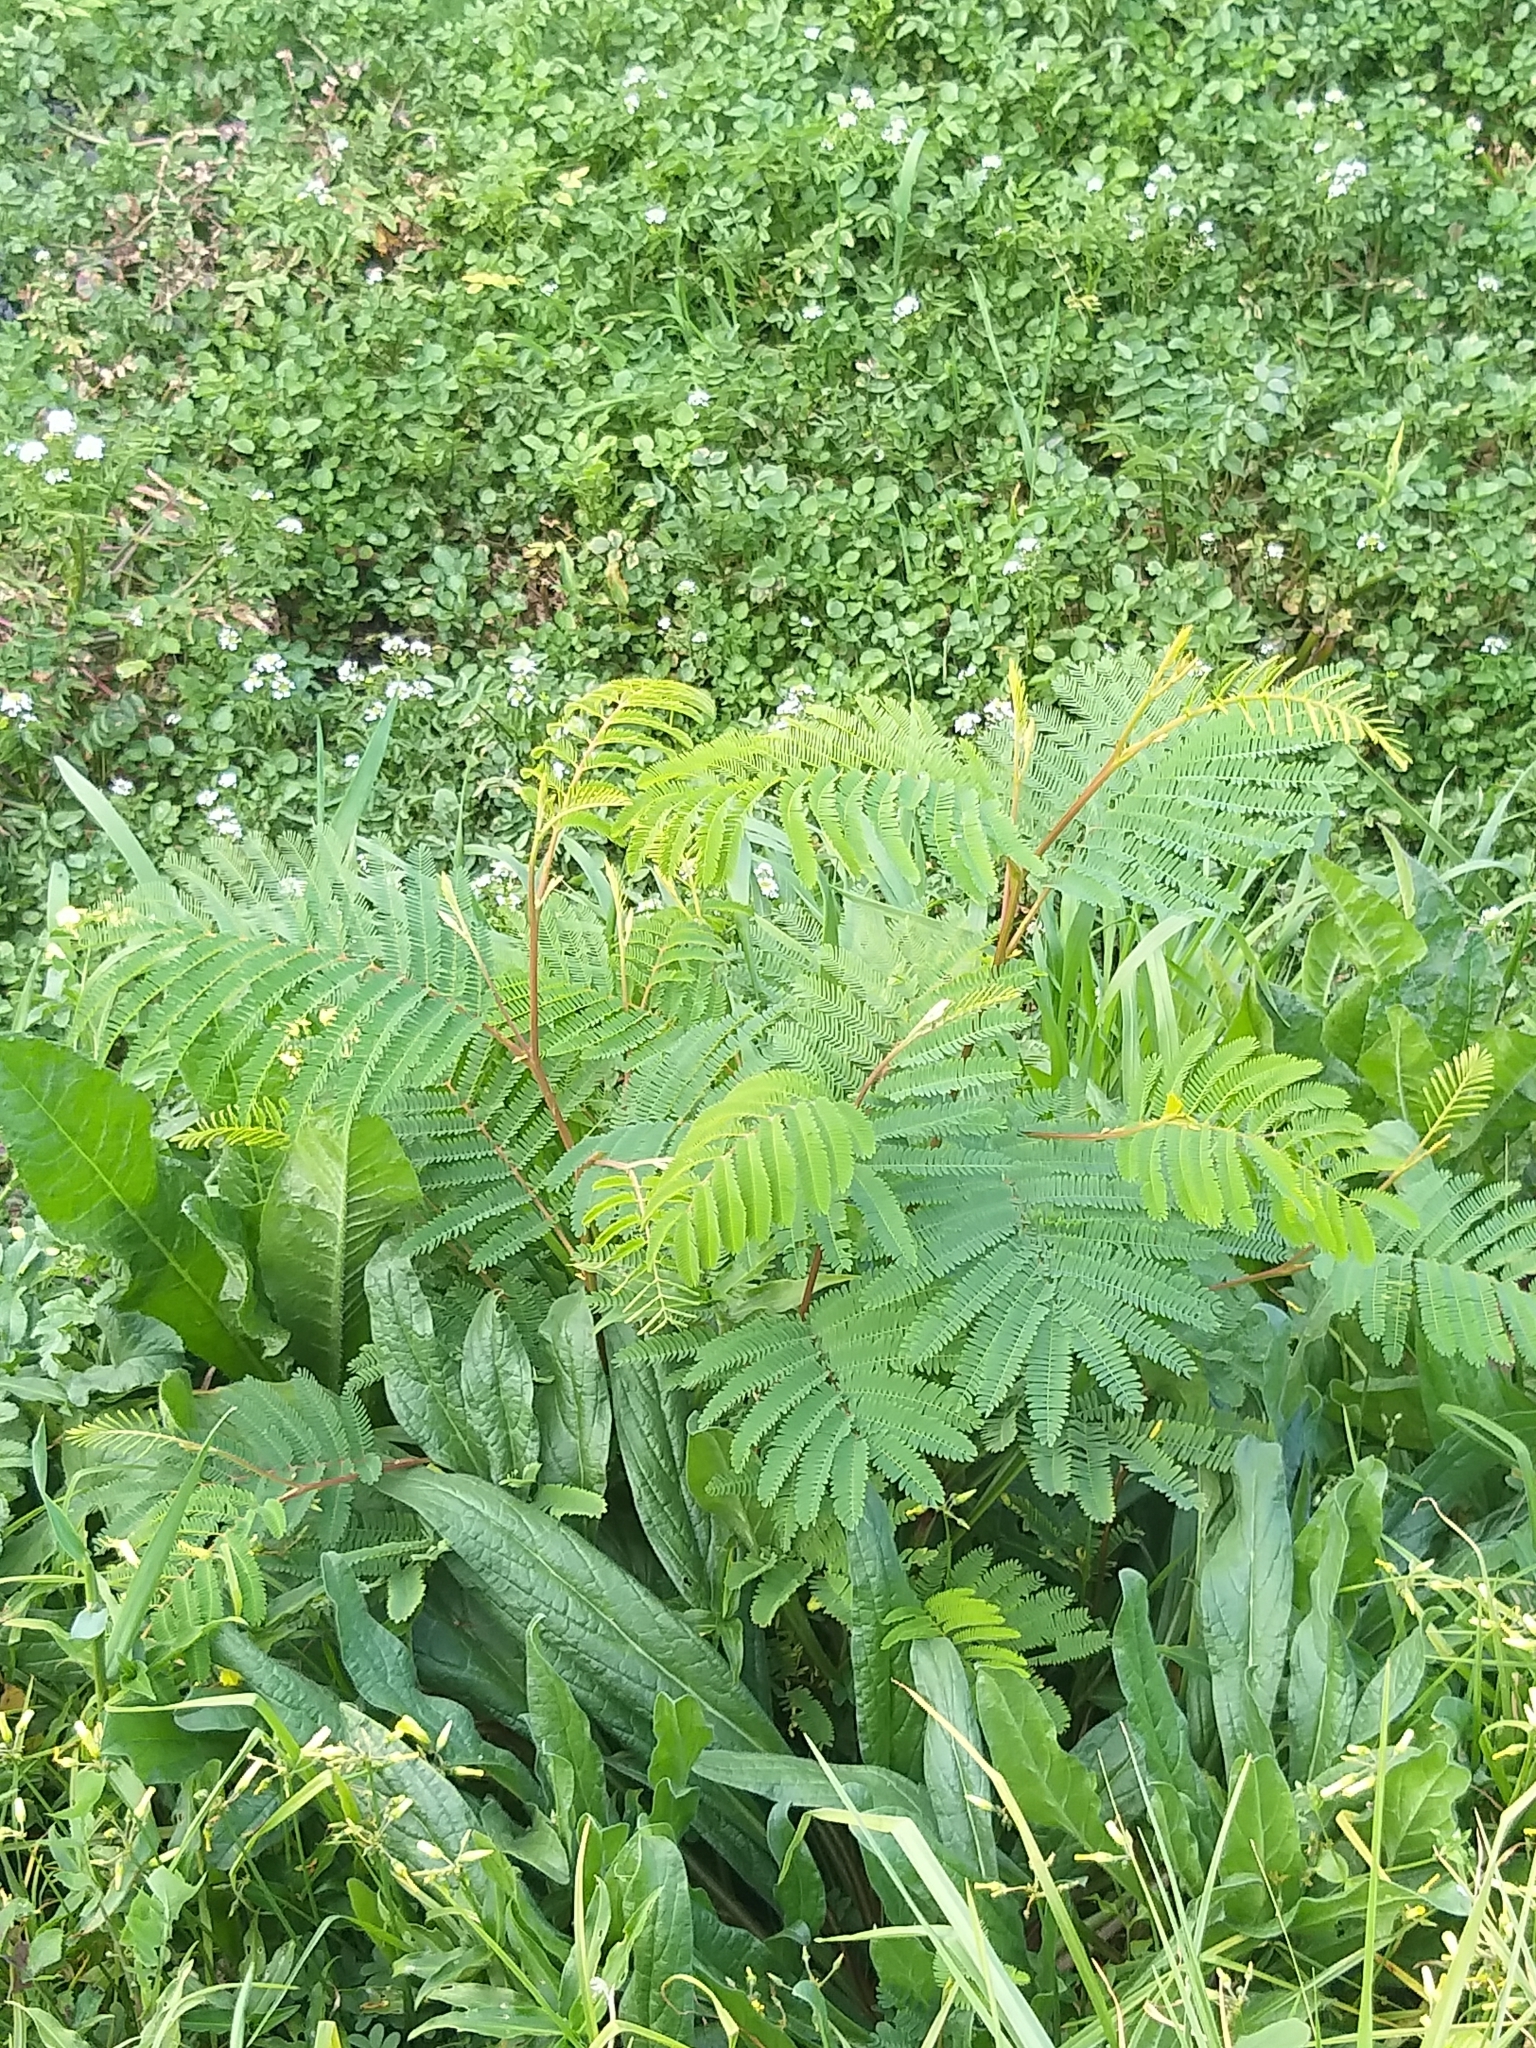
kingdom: Plantae
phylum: Tracheophyta
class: Magnoliopsida
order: Fabales
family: Fabaceae
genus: Paraserianthes
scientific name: Paraserianthes lophantha
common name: Plume albizia
